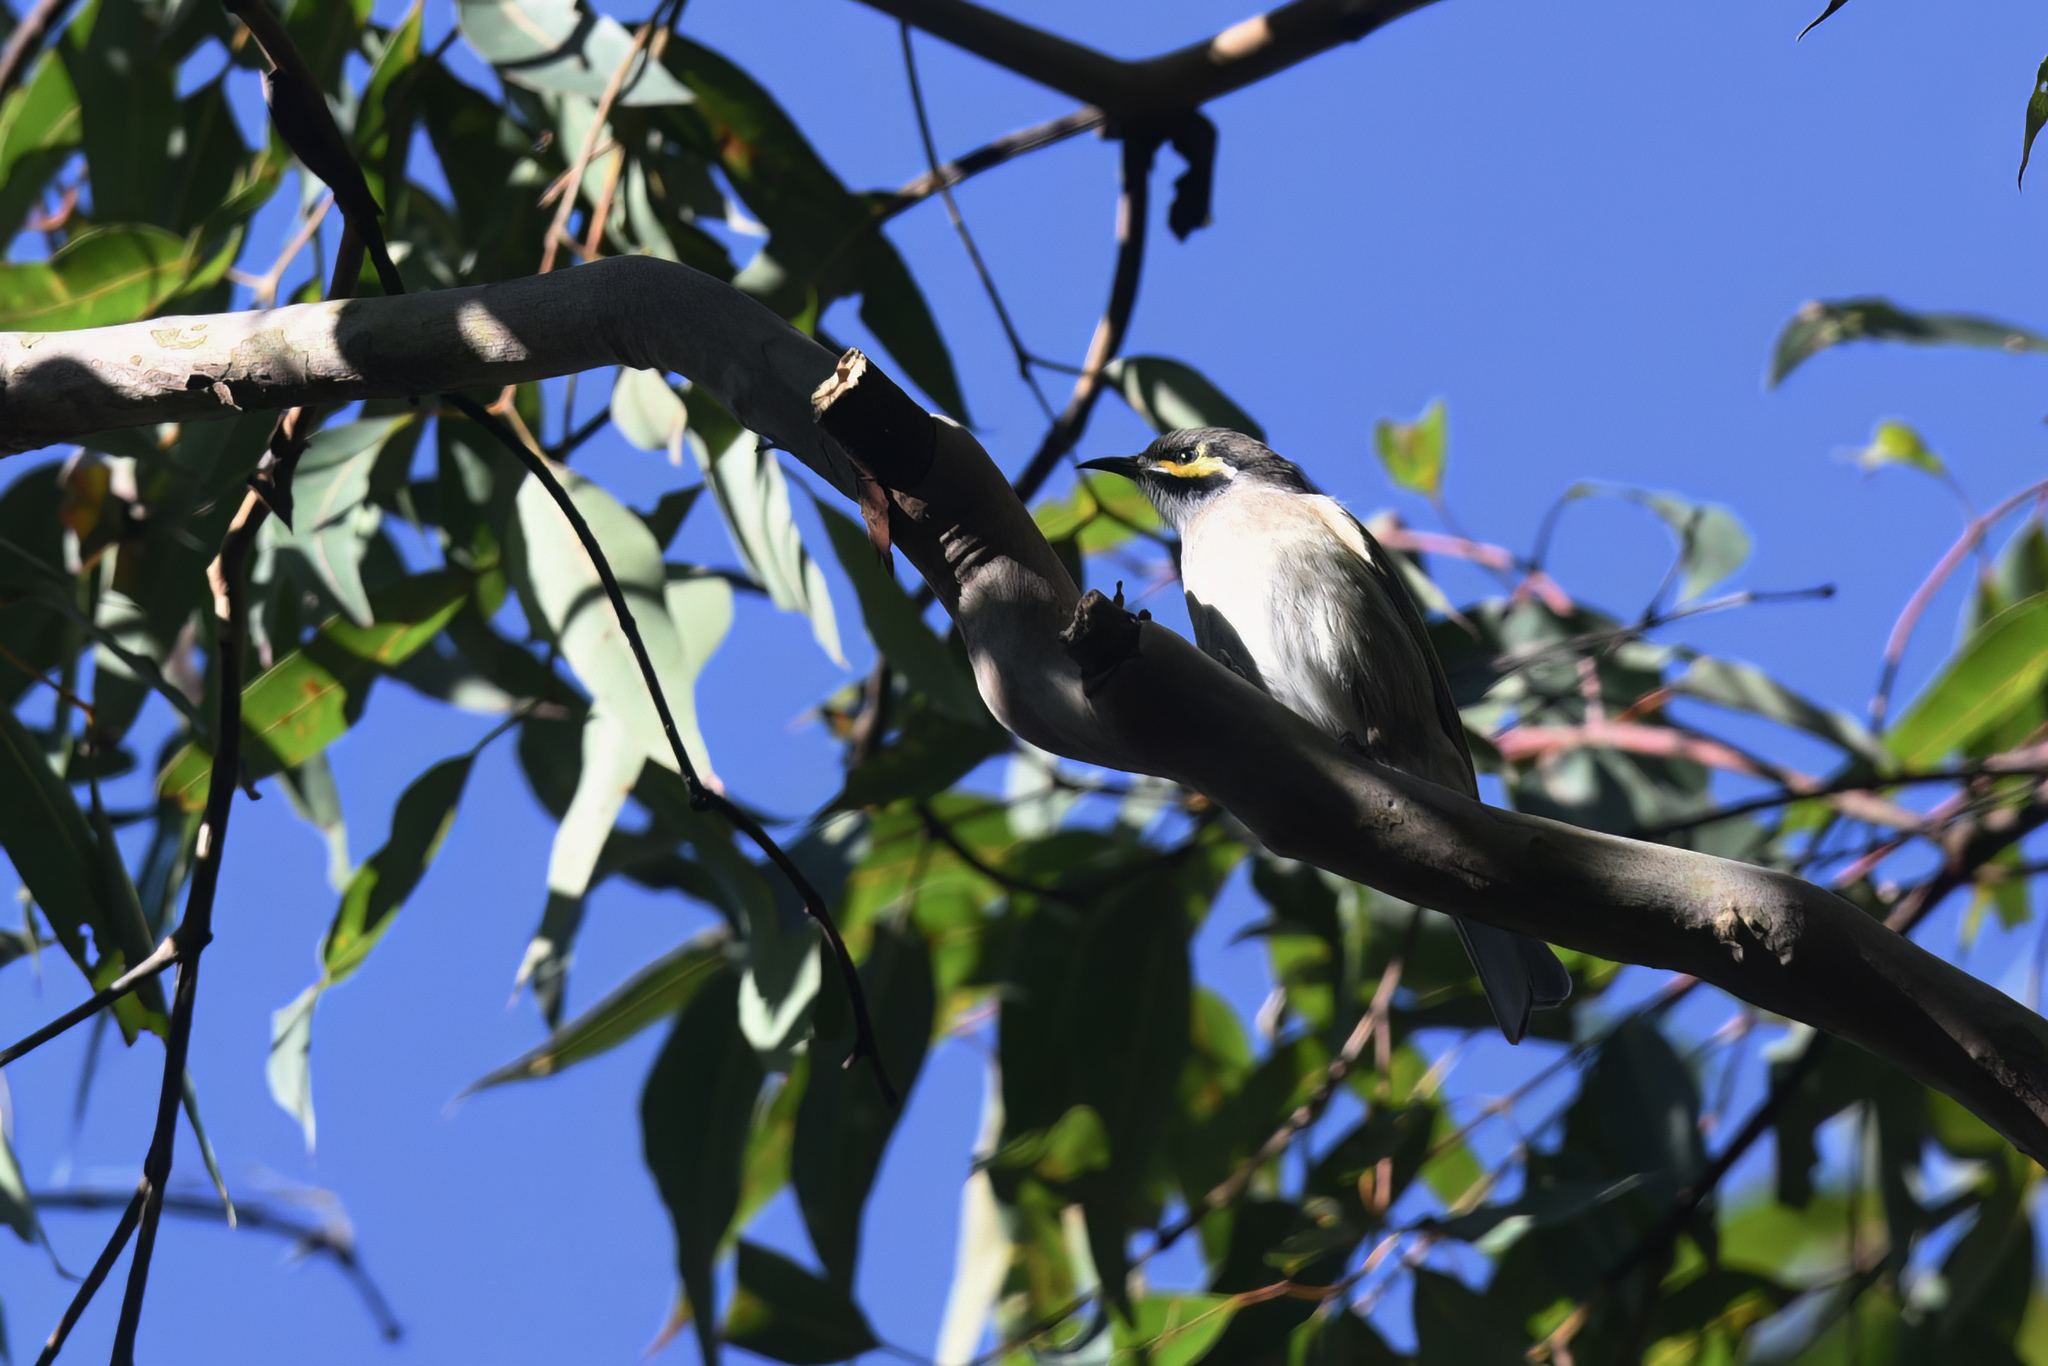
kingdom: Animalia
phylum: Chordata
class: Aves
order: Passeriformes
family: Meliphagidae
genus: Caligavis
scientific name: Caligavis chrysops
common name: Yellow-faced honeyeater
